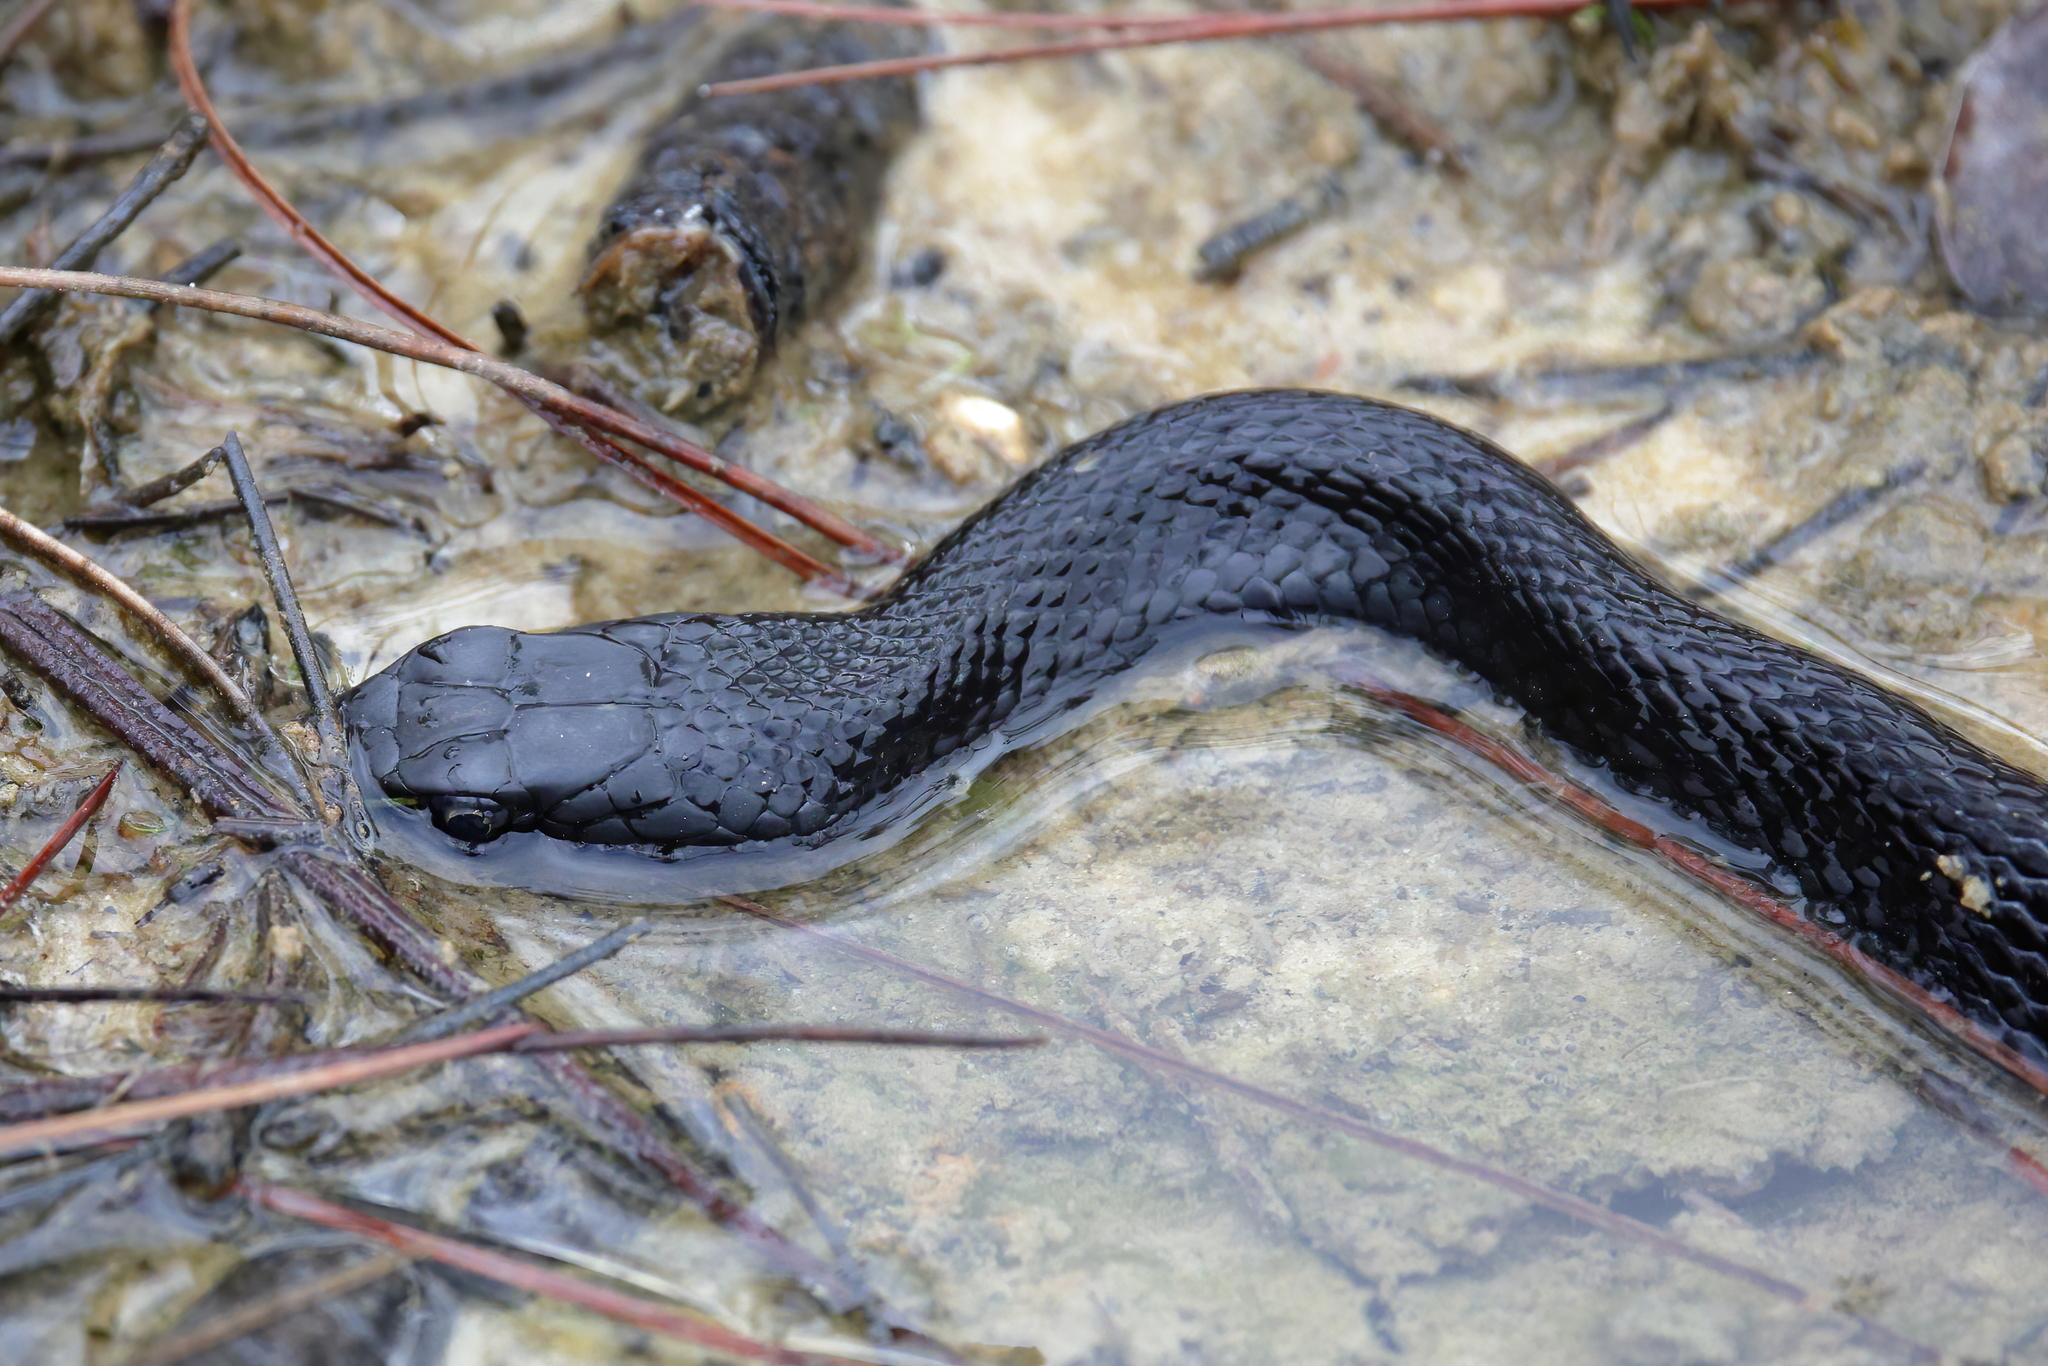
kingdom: Animalia
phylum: Chordata
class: Squamata
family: Colubridae
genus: Coluber
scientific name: Coluber constrictor
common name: Eastern racer
